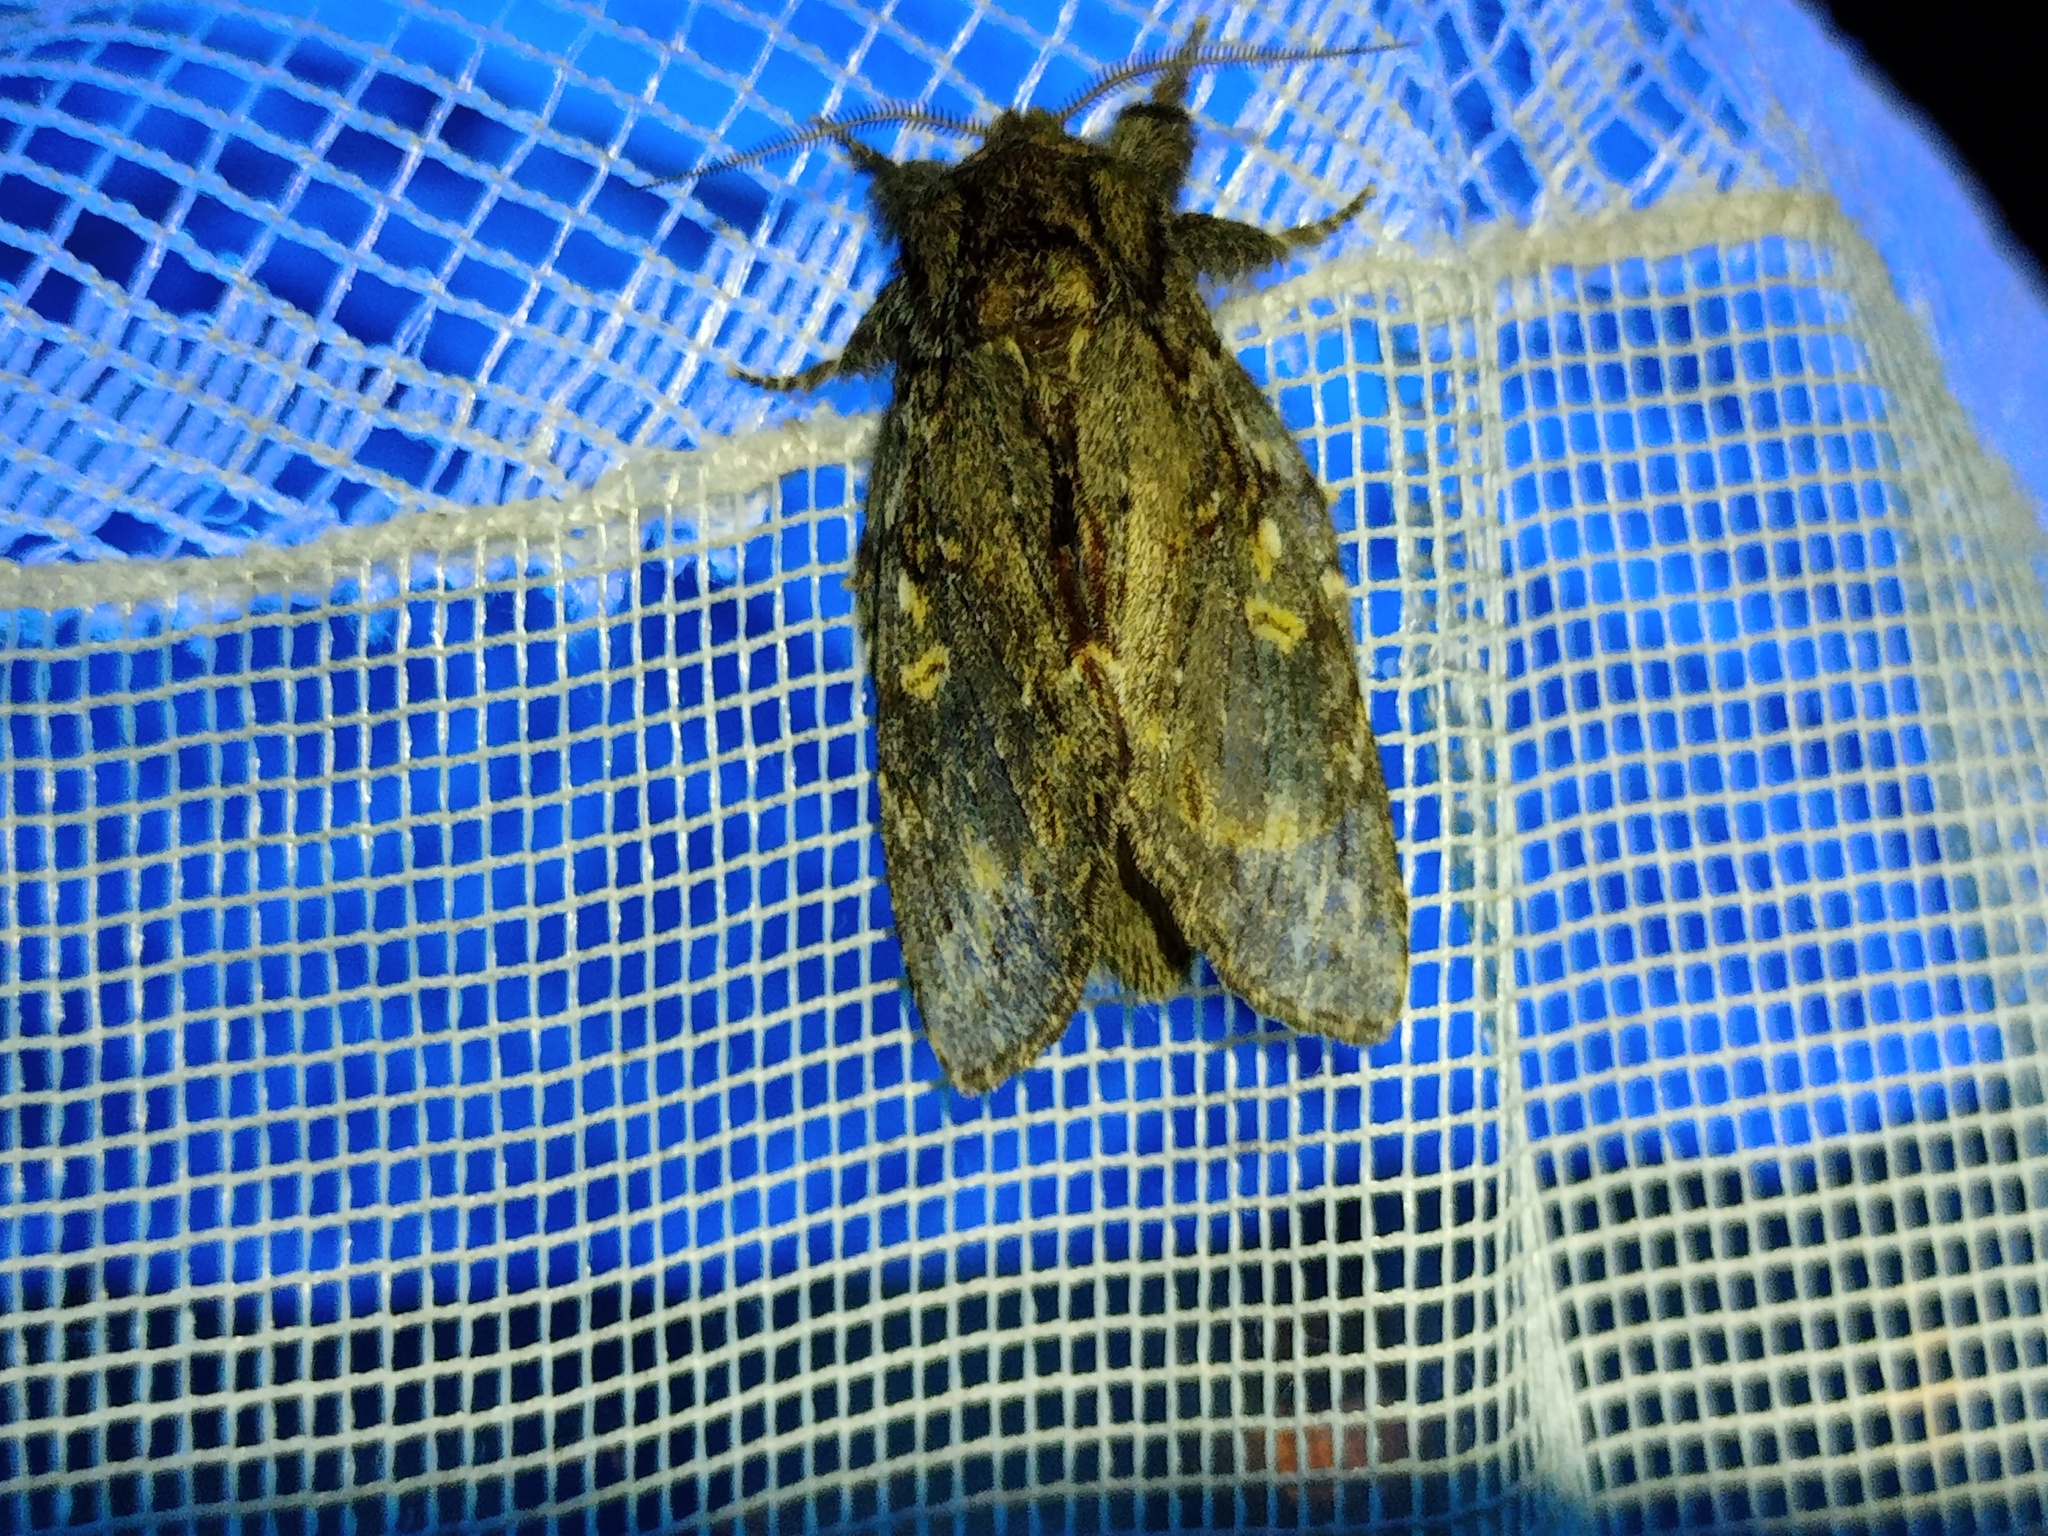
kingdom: Animalia
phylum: Arthropoda
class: Insecta
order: Lepidoptera
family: Notodontidae
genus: Peridea
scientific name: Peridea anceps
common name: Great prominent
